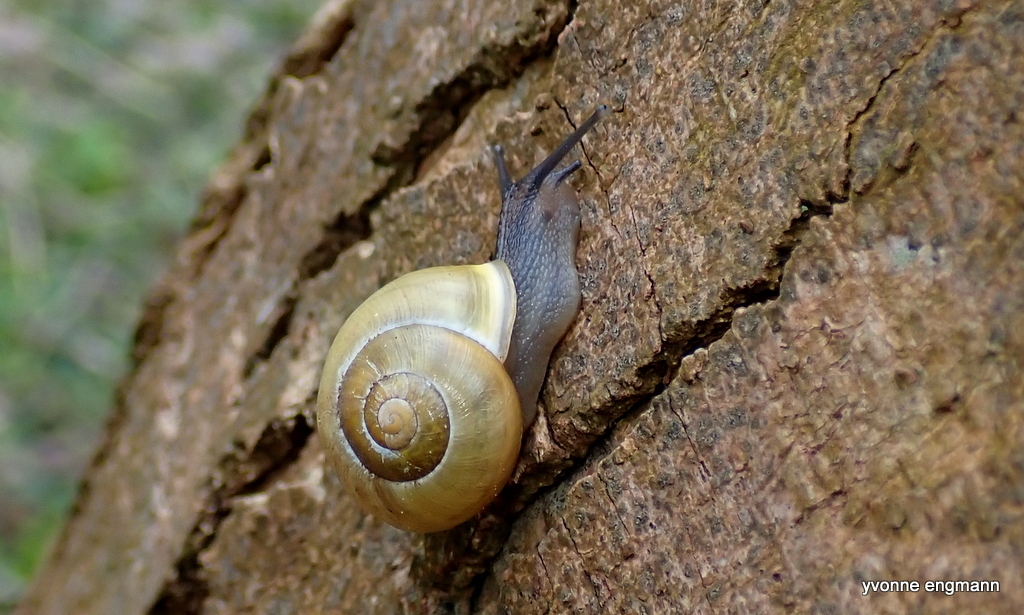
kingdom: Animalia
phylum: Mollusca
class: Gastropoda
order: Stylommatophora
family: Helicidae
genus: Cepaea
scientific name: Cepaea hortensis
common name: White-lip gardensnail
